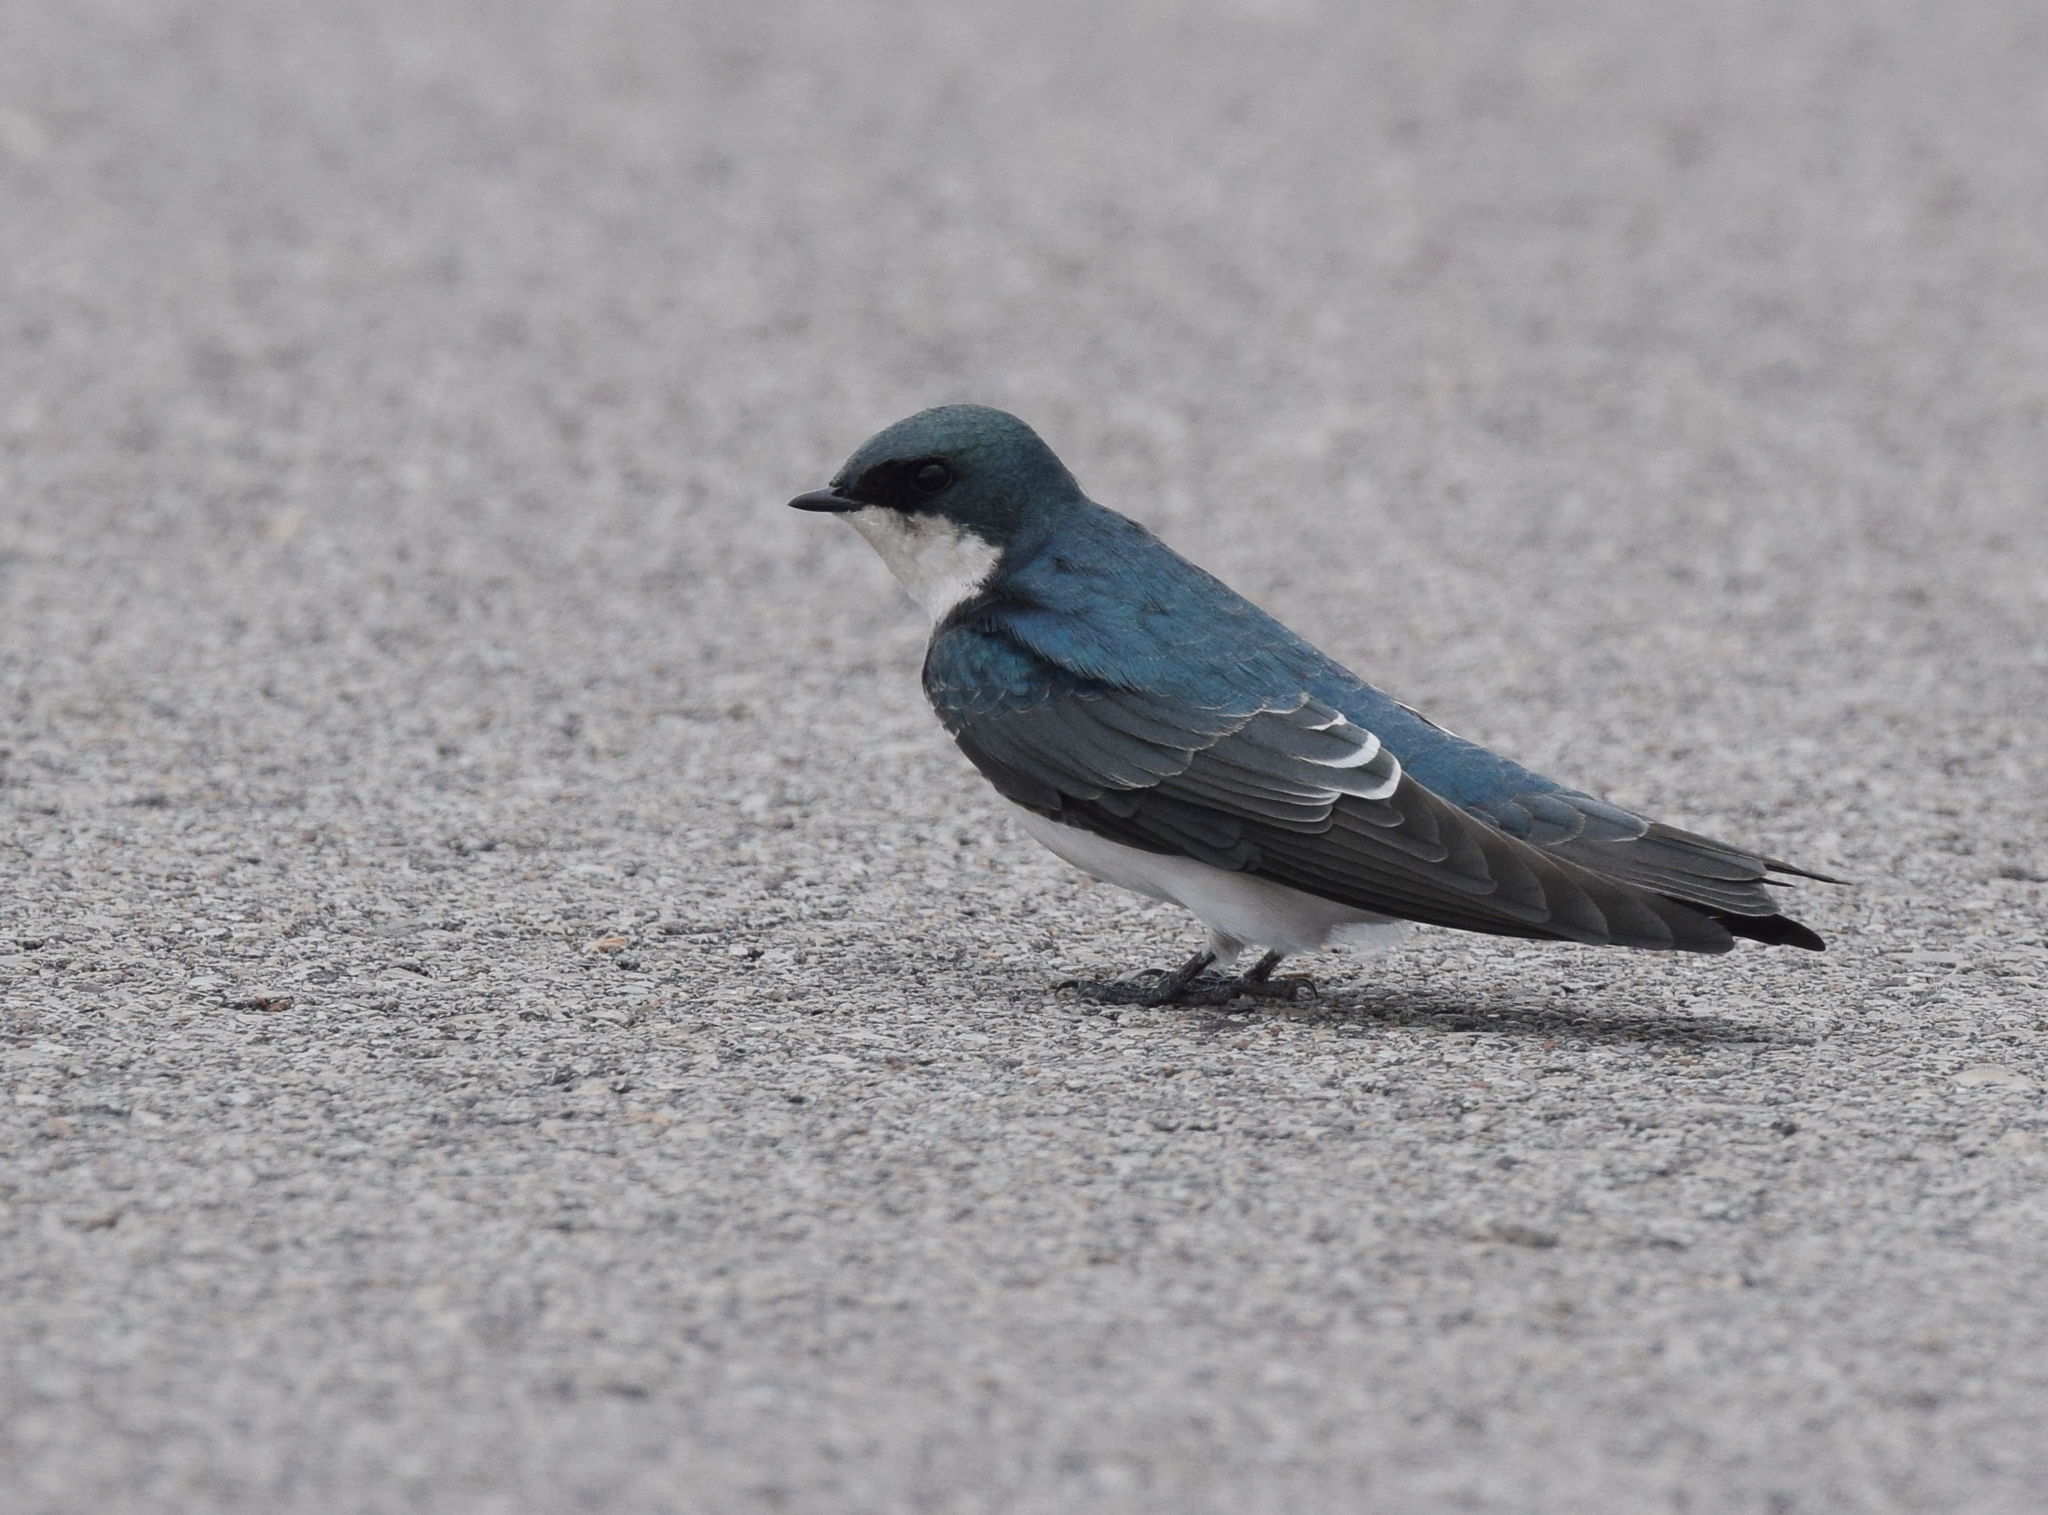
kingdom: Animalia
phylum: Chordata
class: Aves
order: Passeriformes
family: Hirundinidae
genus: Tachycineta
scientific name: Tachycineta bicolor
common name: Tree swallow
